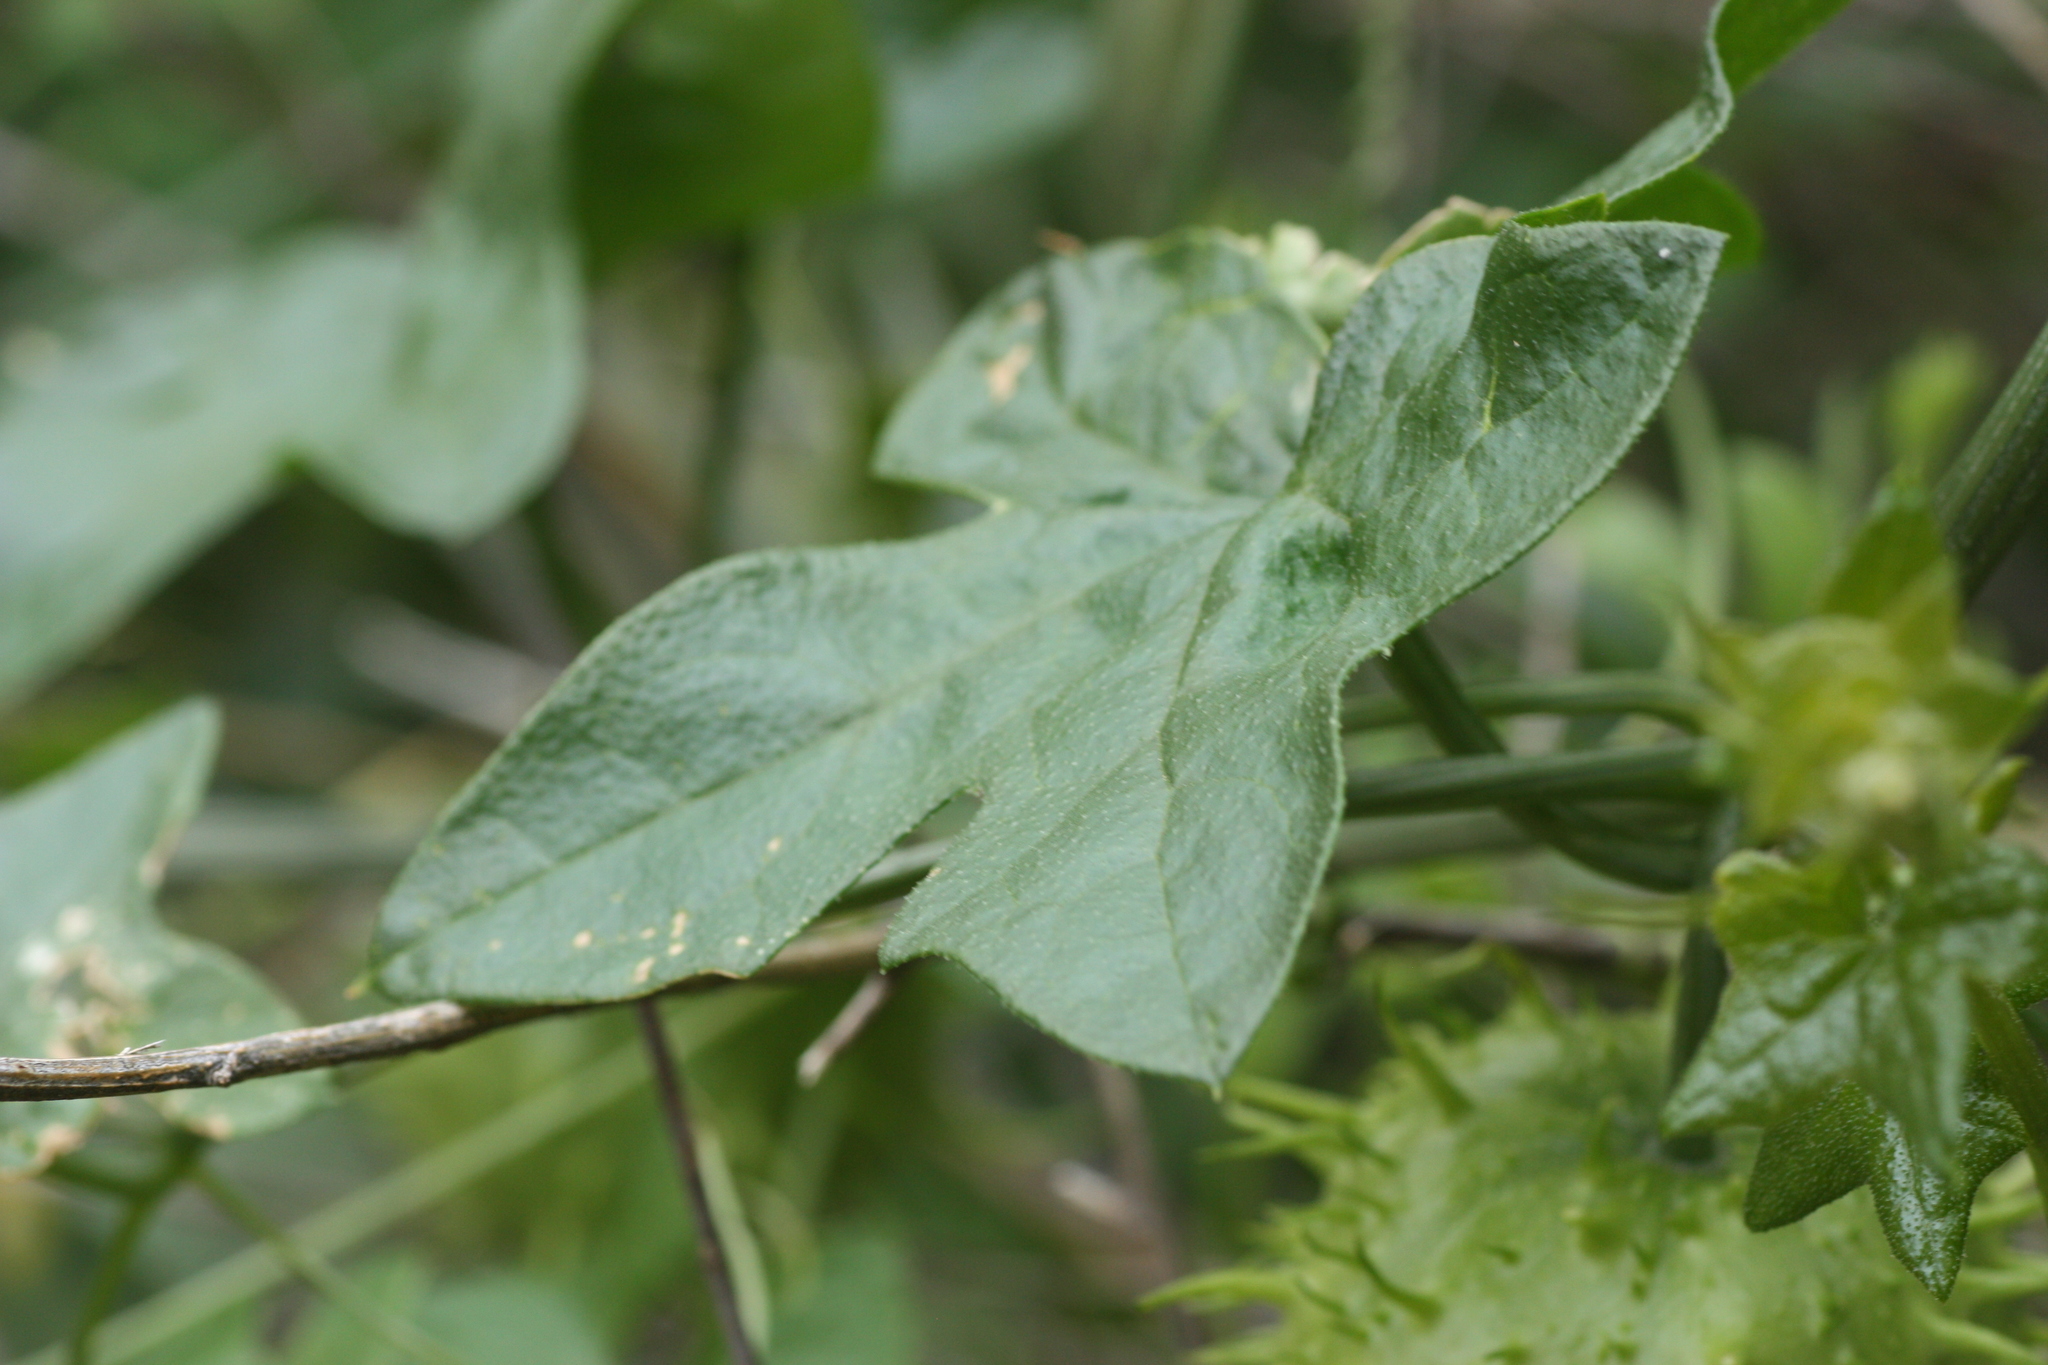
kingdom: Plantae
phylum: Tracheophyta
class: Magnoliopsida
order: Cucurbitales
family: Cucurbitaceae
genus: Marah
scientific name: Marah gilensis
